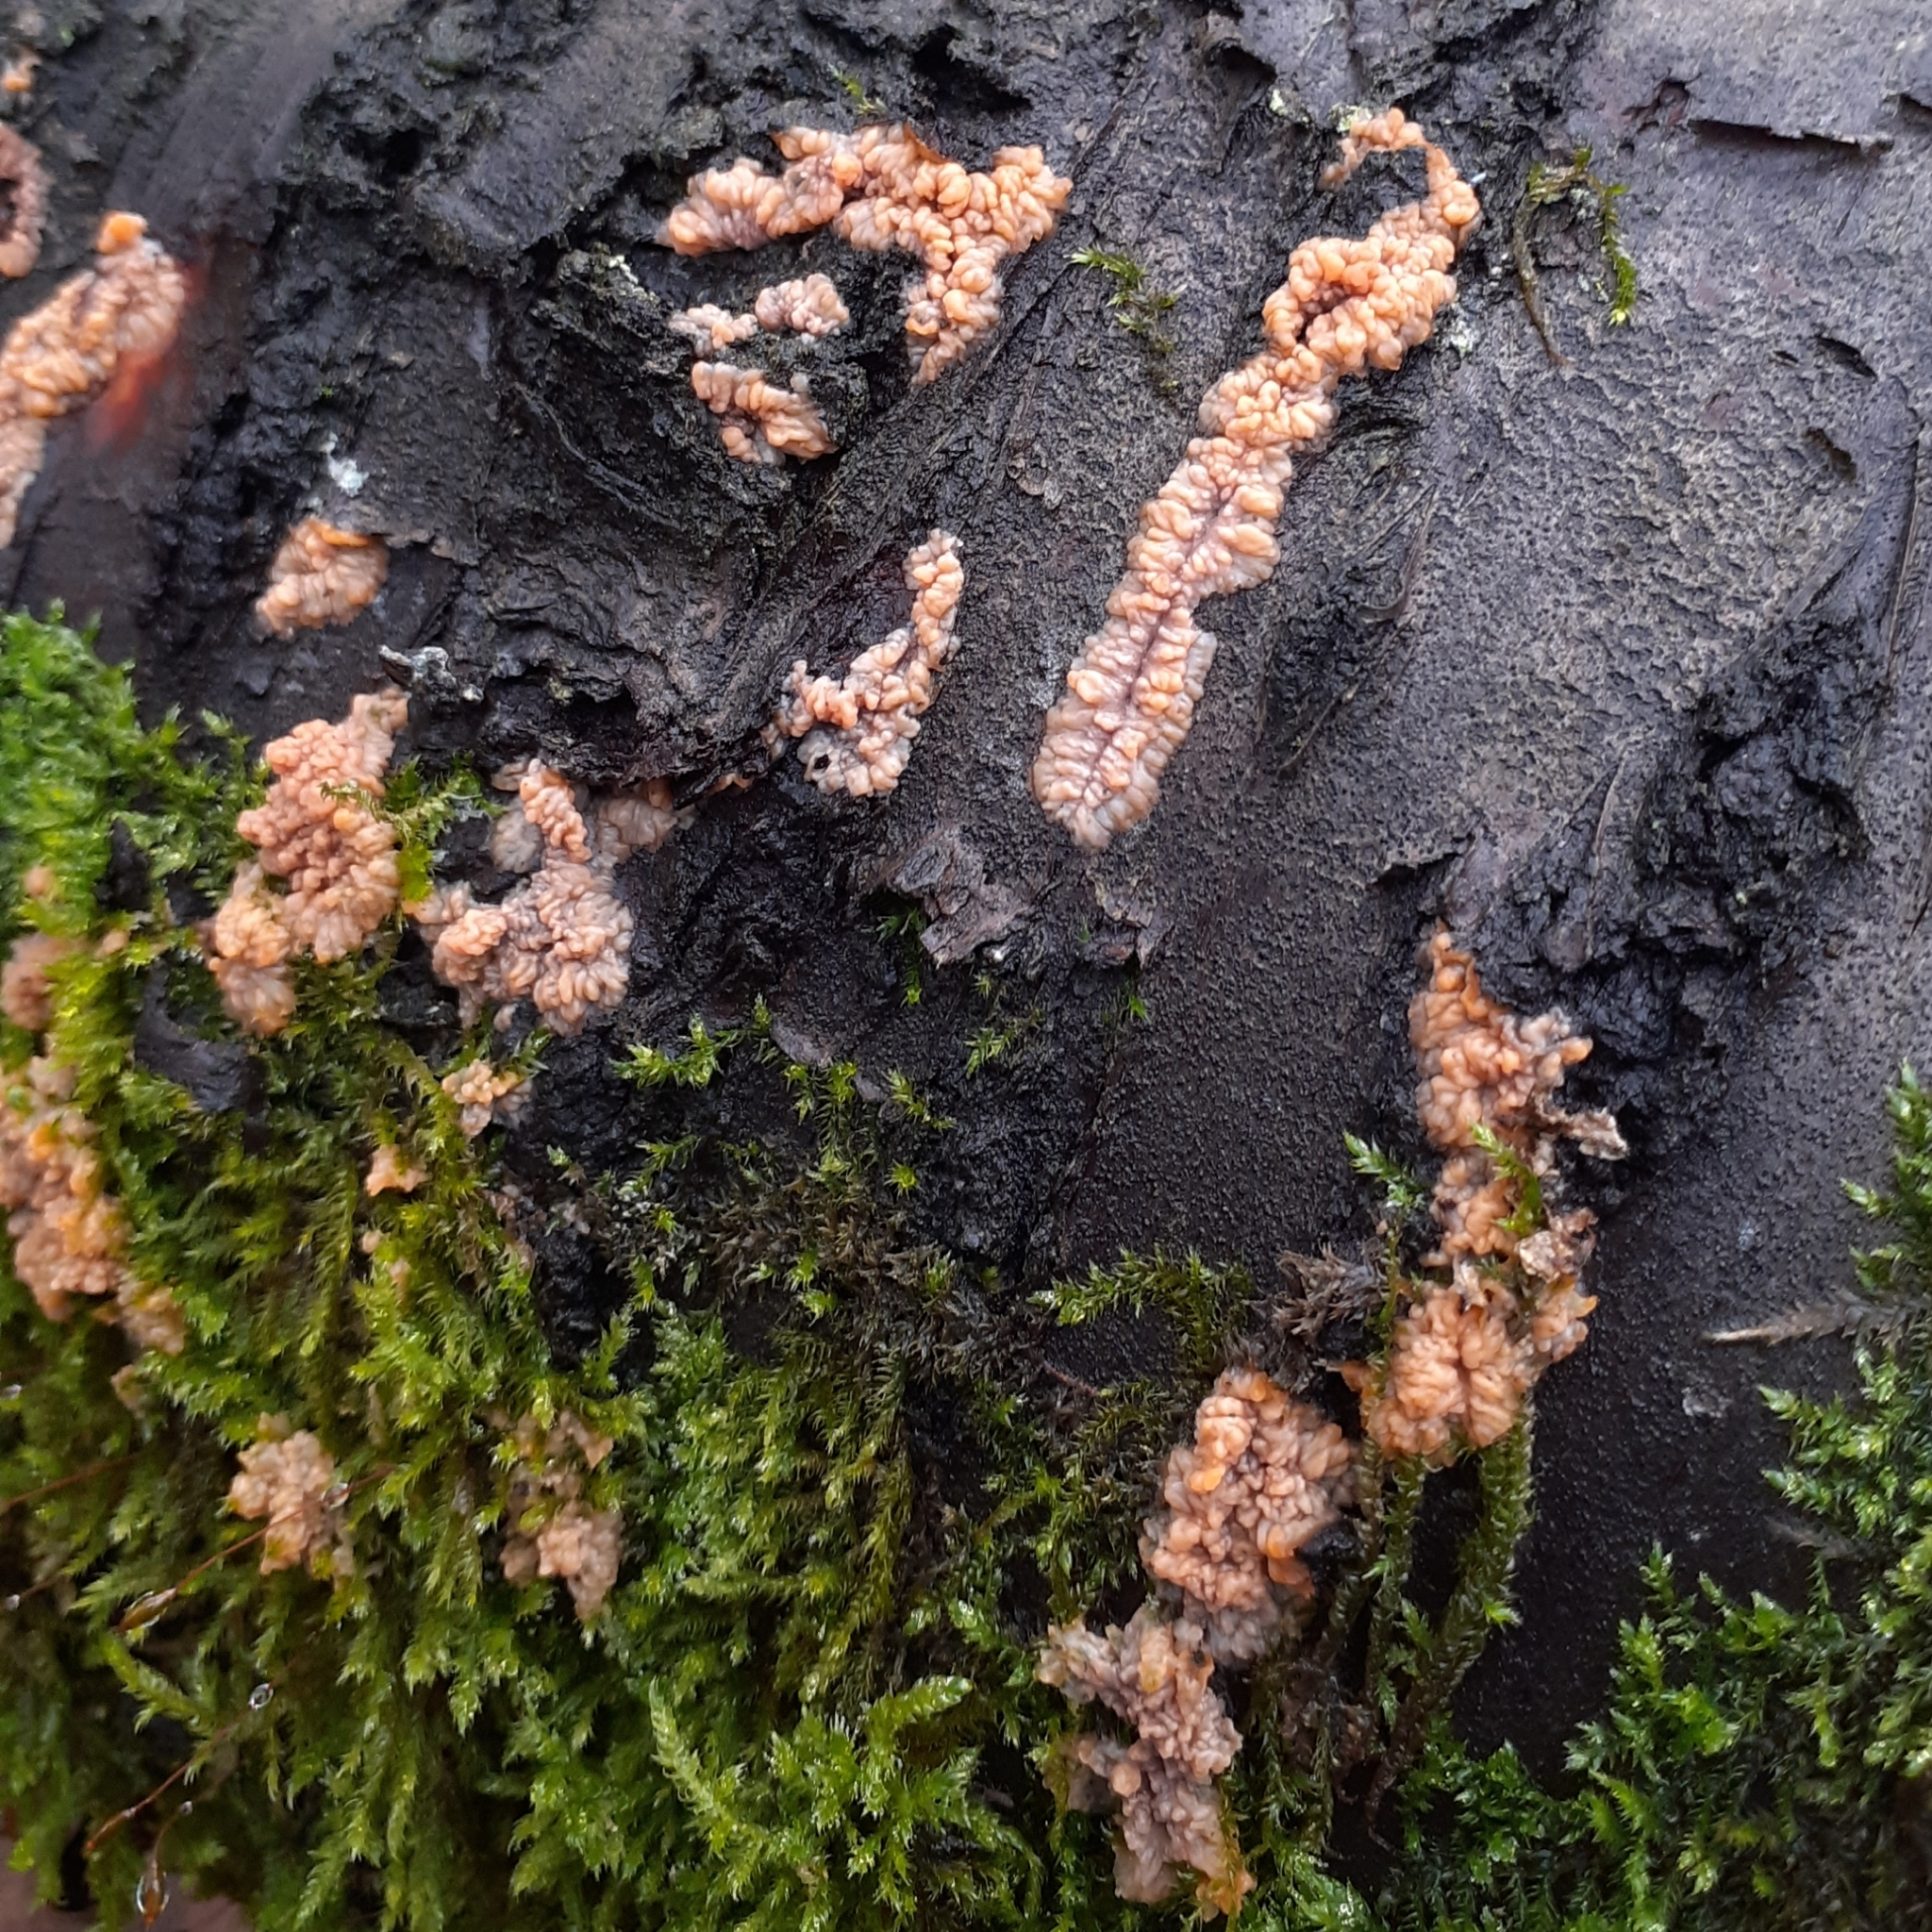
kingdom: Fungi
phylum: Basidiomycota
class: Agaricomycetes
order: Polyporales
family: Meruliaceae
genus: Phlebia
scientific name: Phlebia radiata
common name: Wrinkled crust
